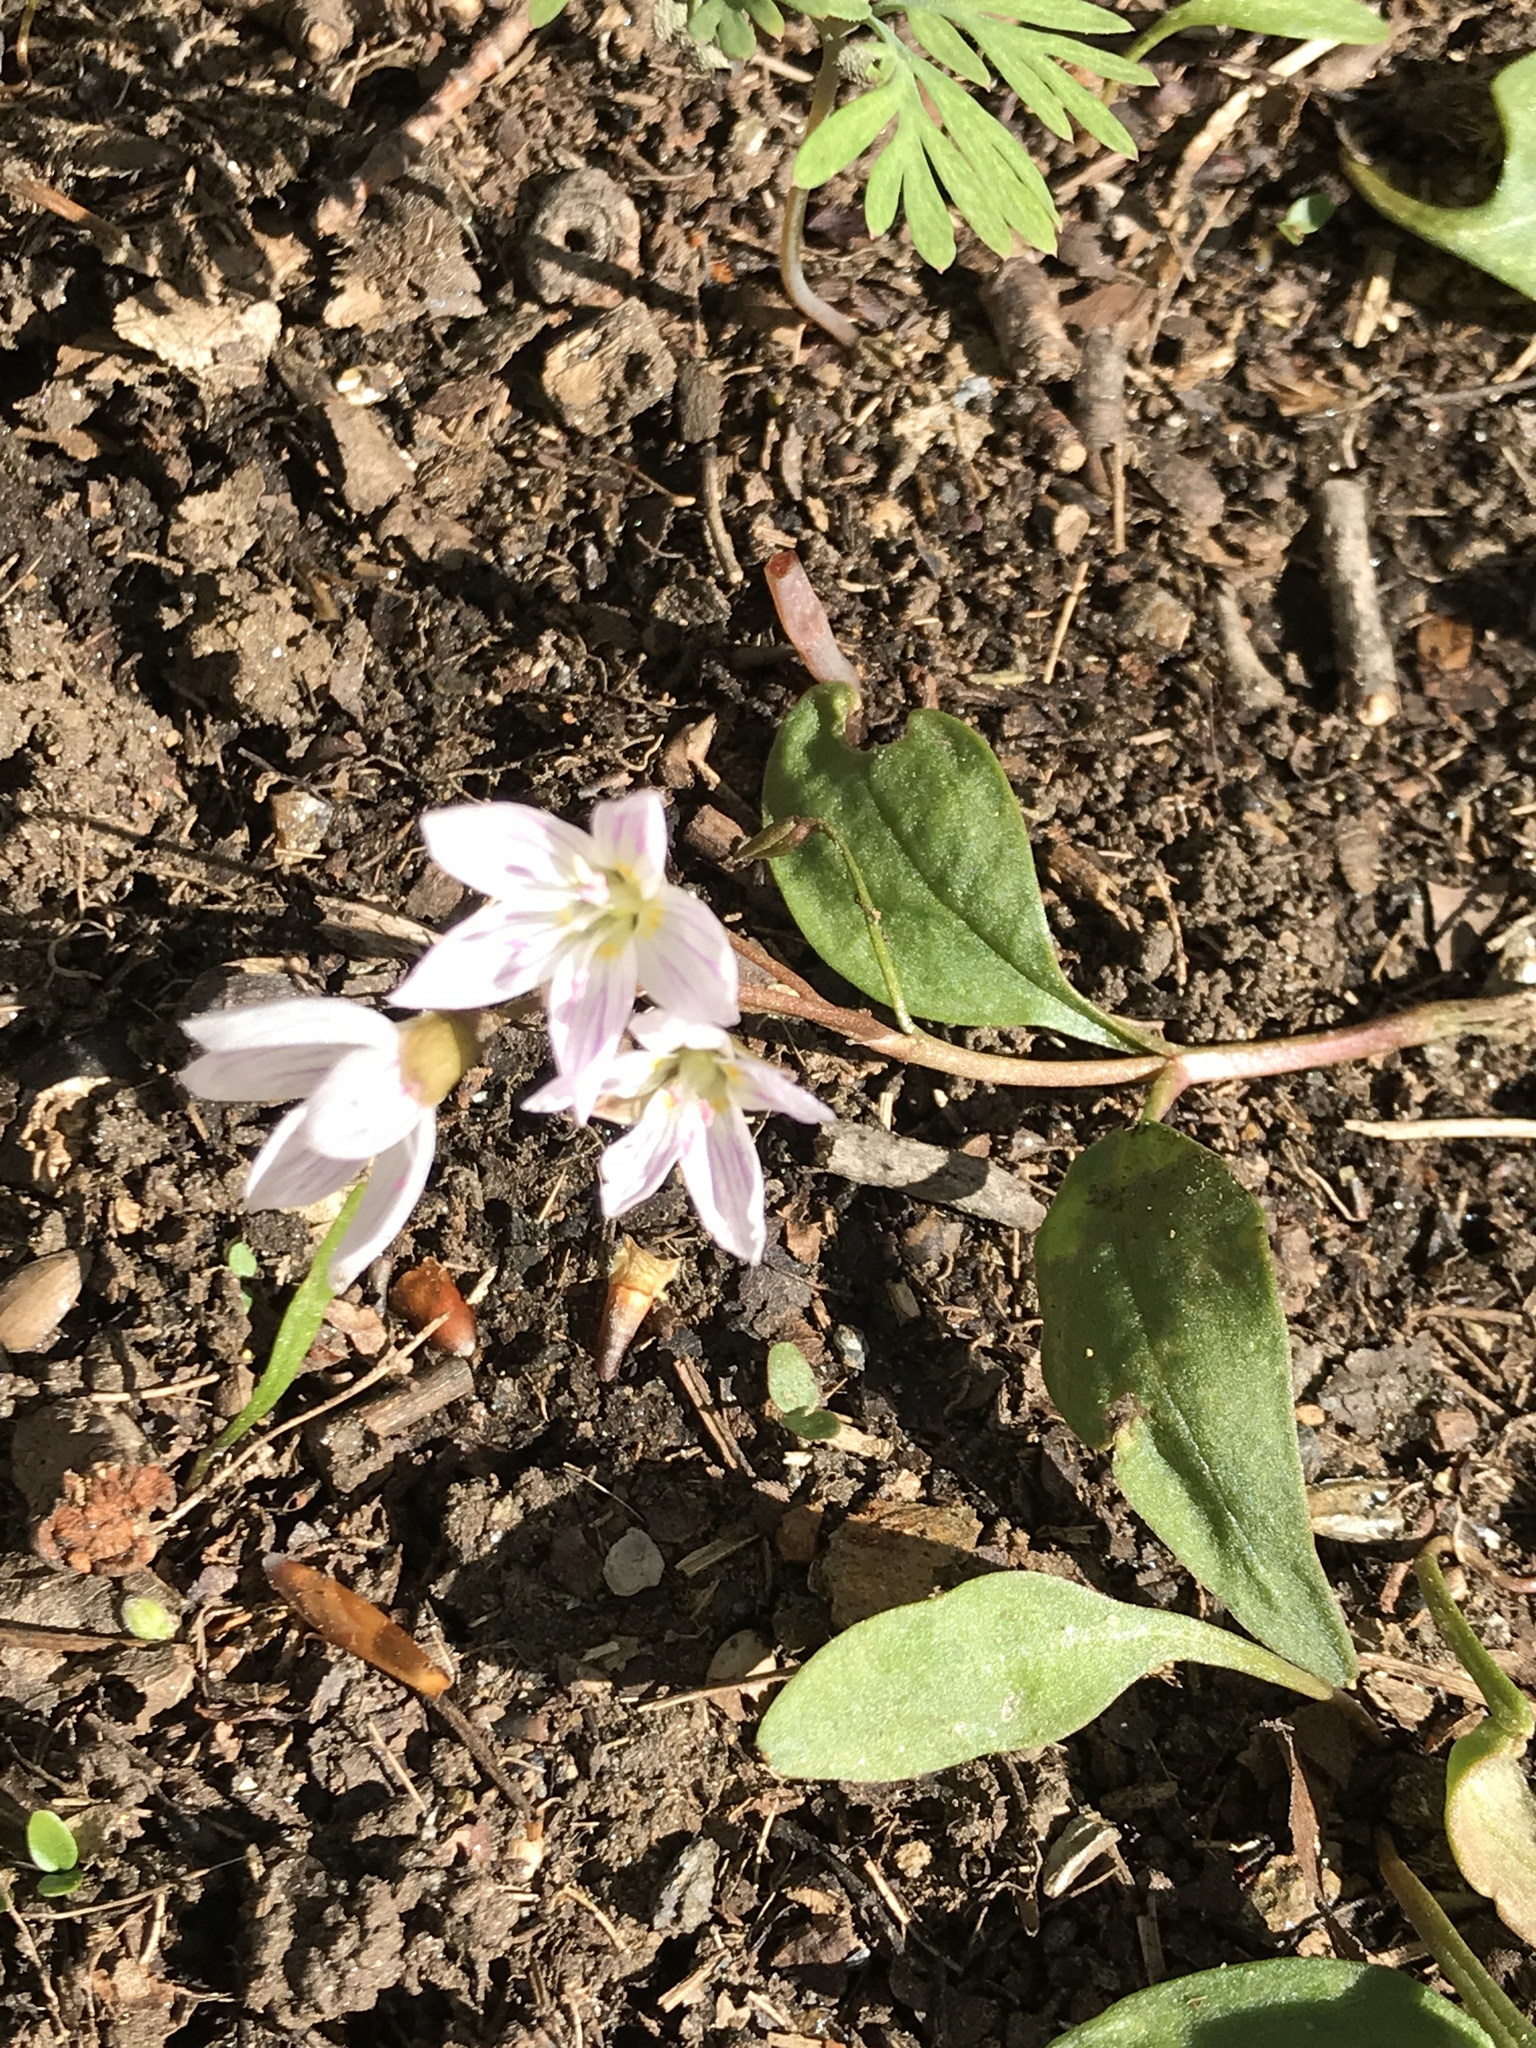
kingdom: Plantae
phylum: Tracheophyta
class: Magnoliopsida
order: Caryophyllales
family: Montiaceae
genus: Claytonia
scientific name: Claytonia caroliniana
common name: Carolina spring beauty
